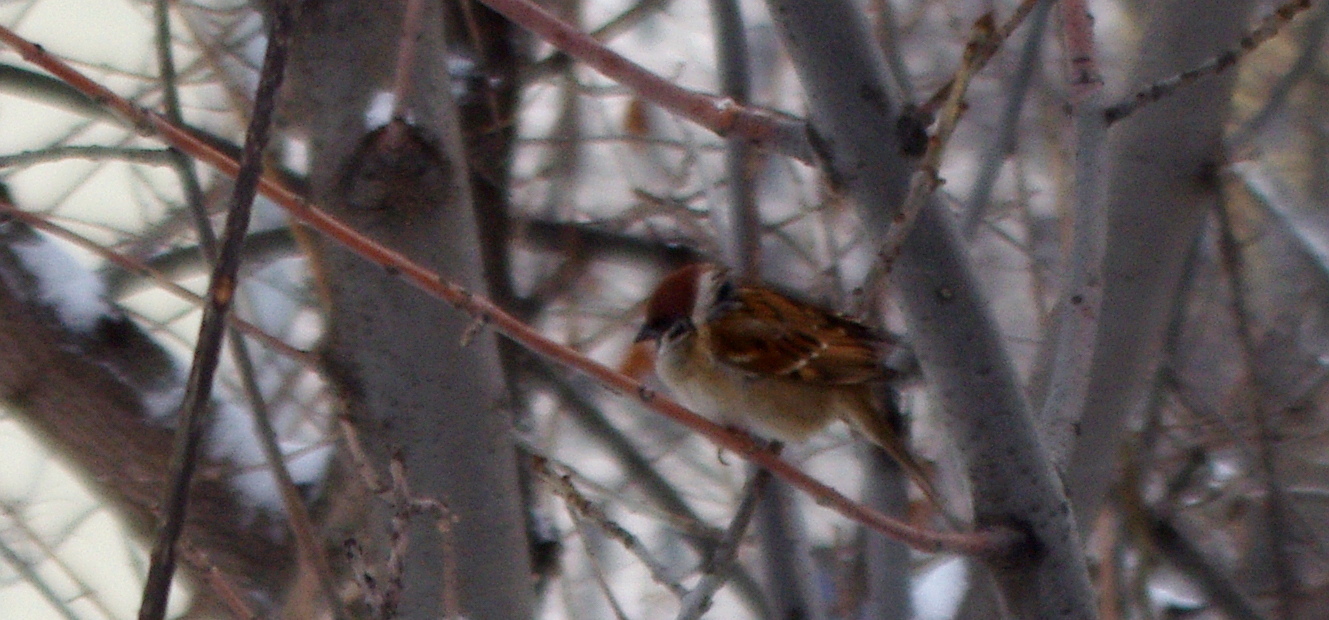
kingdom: Animalia
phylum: Chordata
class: Aves
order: Passeriformes
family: Passeridae
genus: Passer
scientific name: Passer montanus
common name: Eurasian tree sparrow
